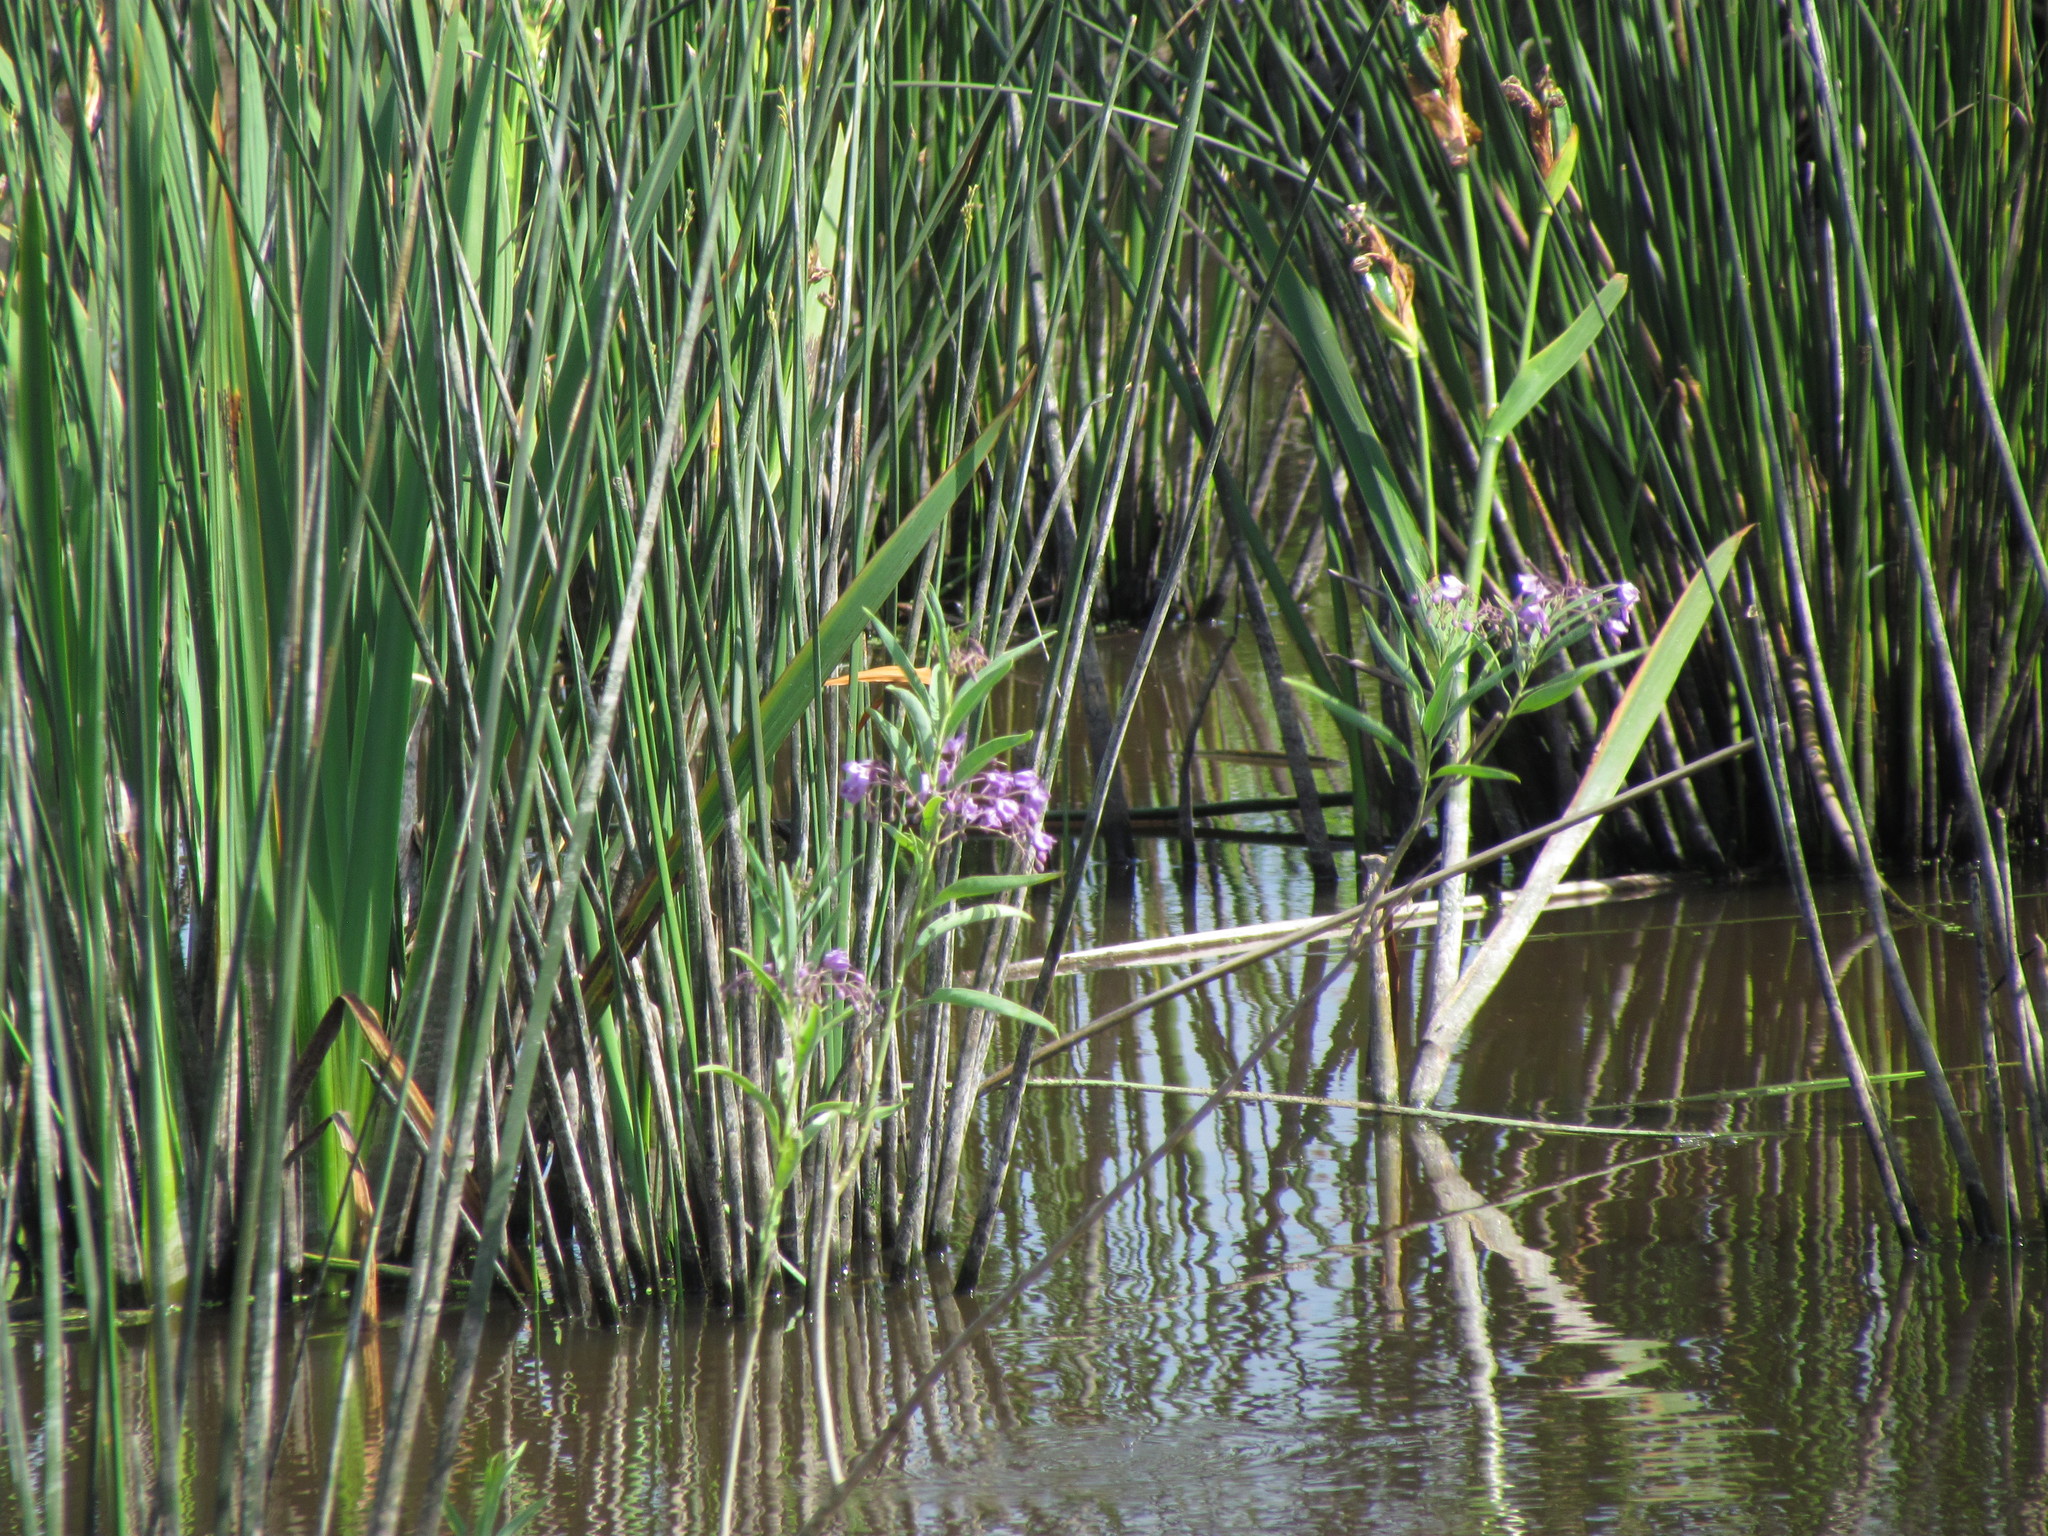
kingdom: Plantae
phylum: Tracheophyta
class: Magnoliopsida
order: Solanales
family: Solanaceae
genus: Solanum
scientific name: Solanum glaucophyllum
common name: Waxyleaf nightshade
